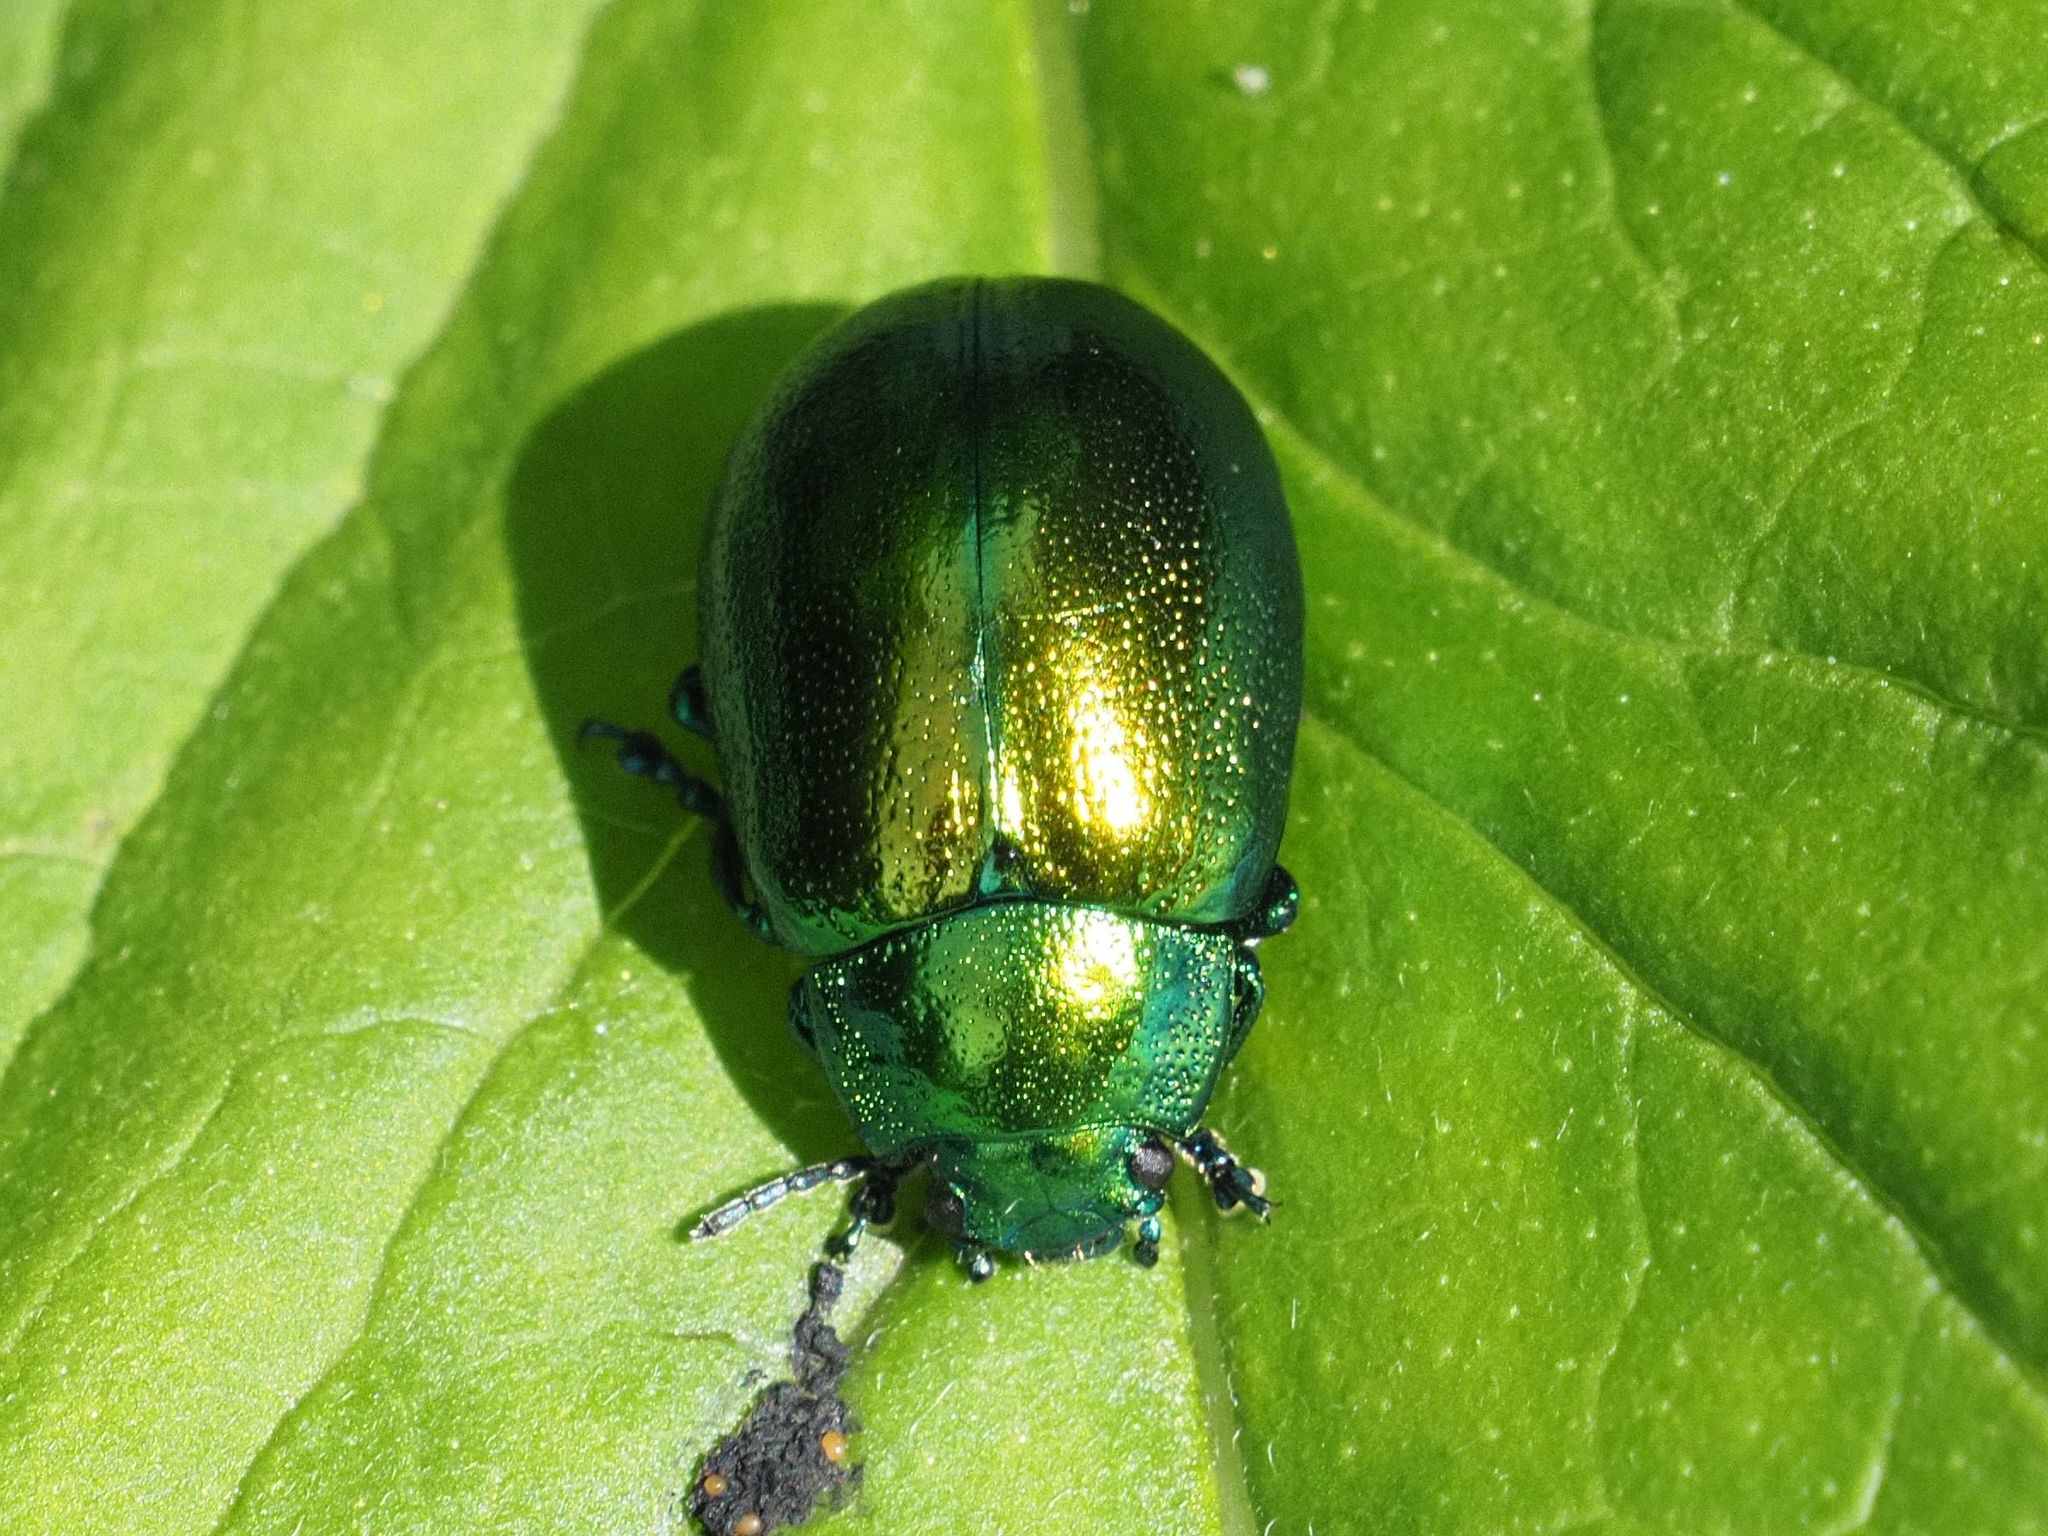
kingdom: Animalia
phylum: Arthropoda
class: Insecta
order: Coleoptera
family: Chrysomelidae
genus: Chrysolina
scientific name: Chrysolina herbacea
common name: Mint leaf beatle
